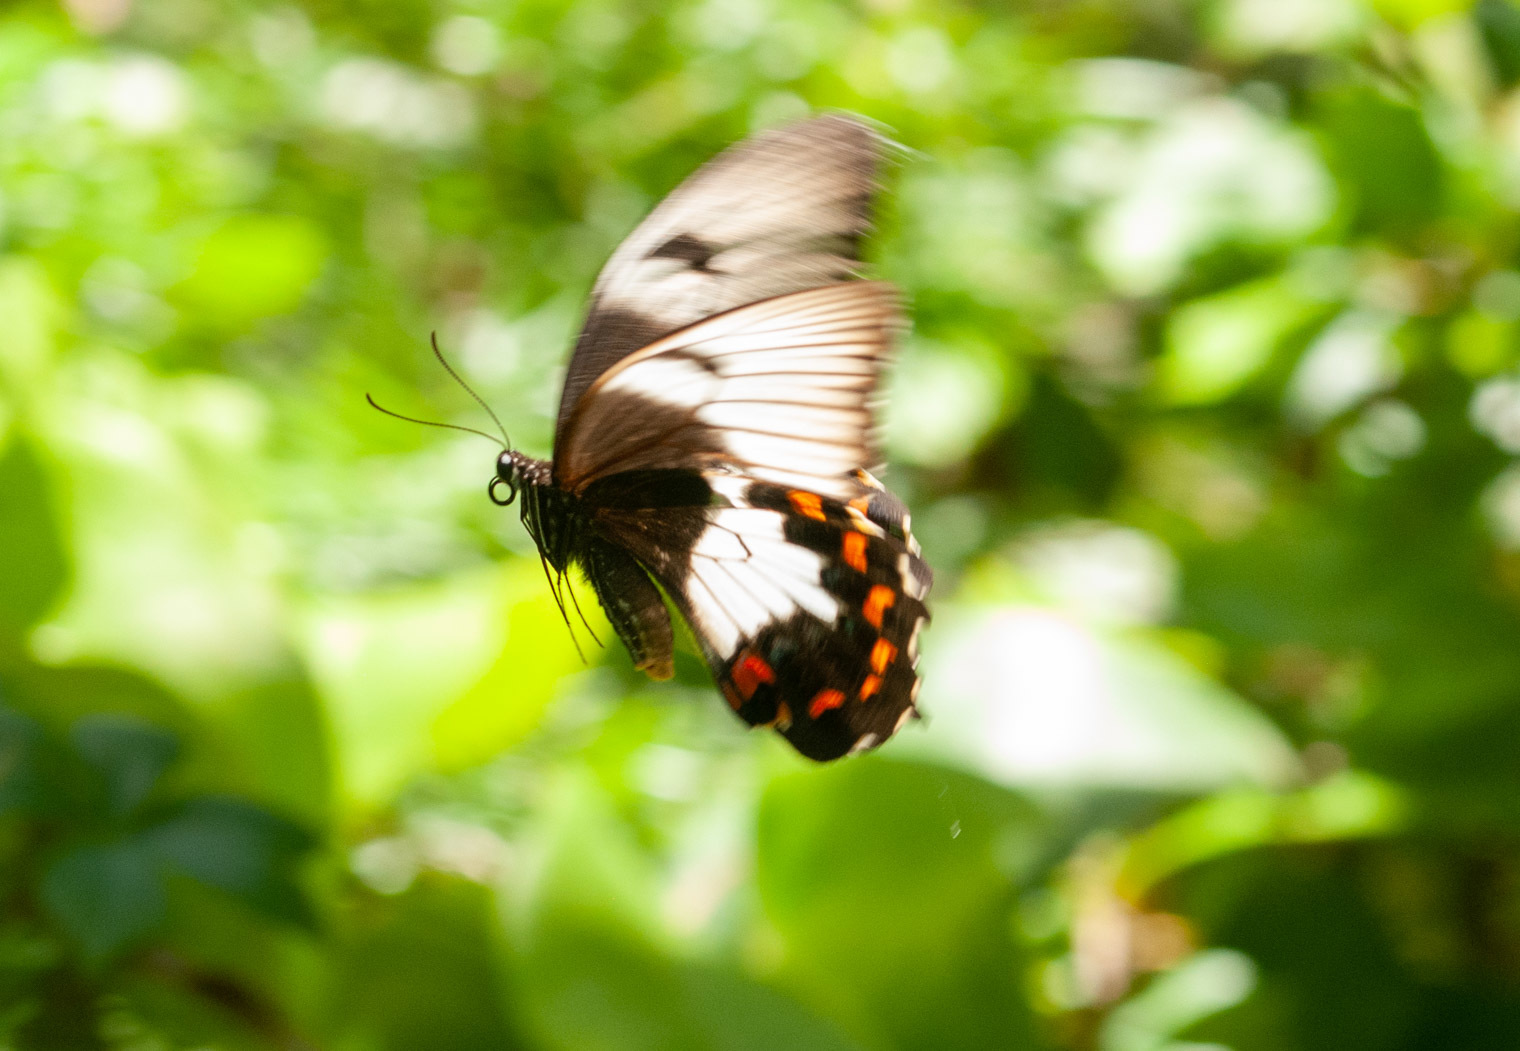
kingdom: Animalia
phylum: Arthropoda
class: Insecta
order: Lepidoptera
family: Papilionidae
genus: Papilio
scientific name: Papilio aegeus
